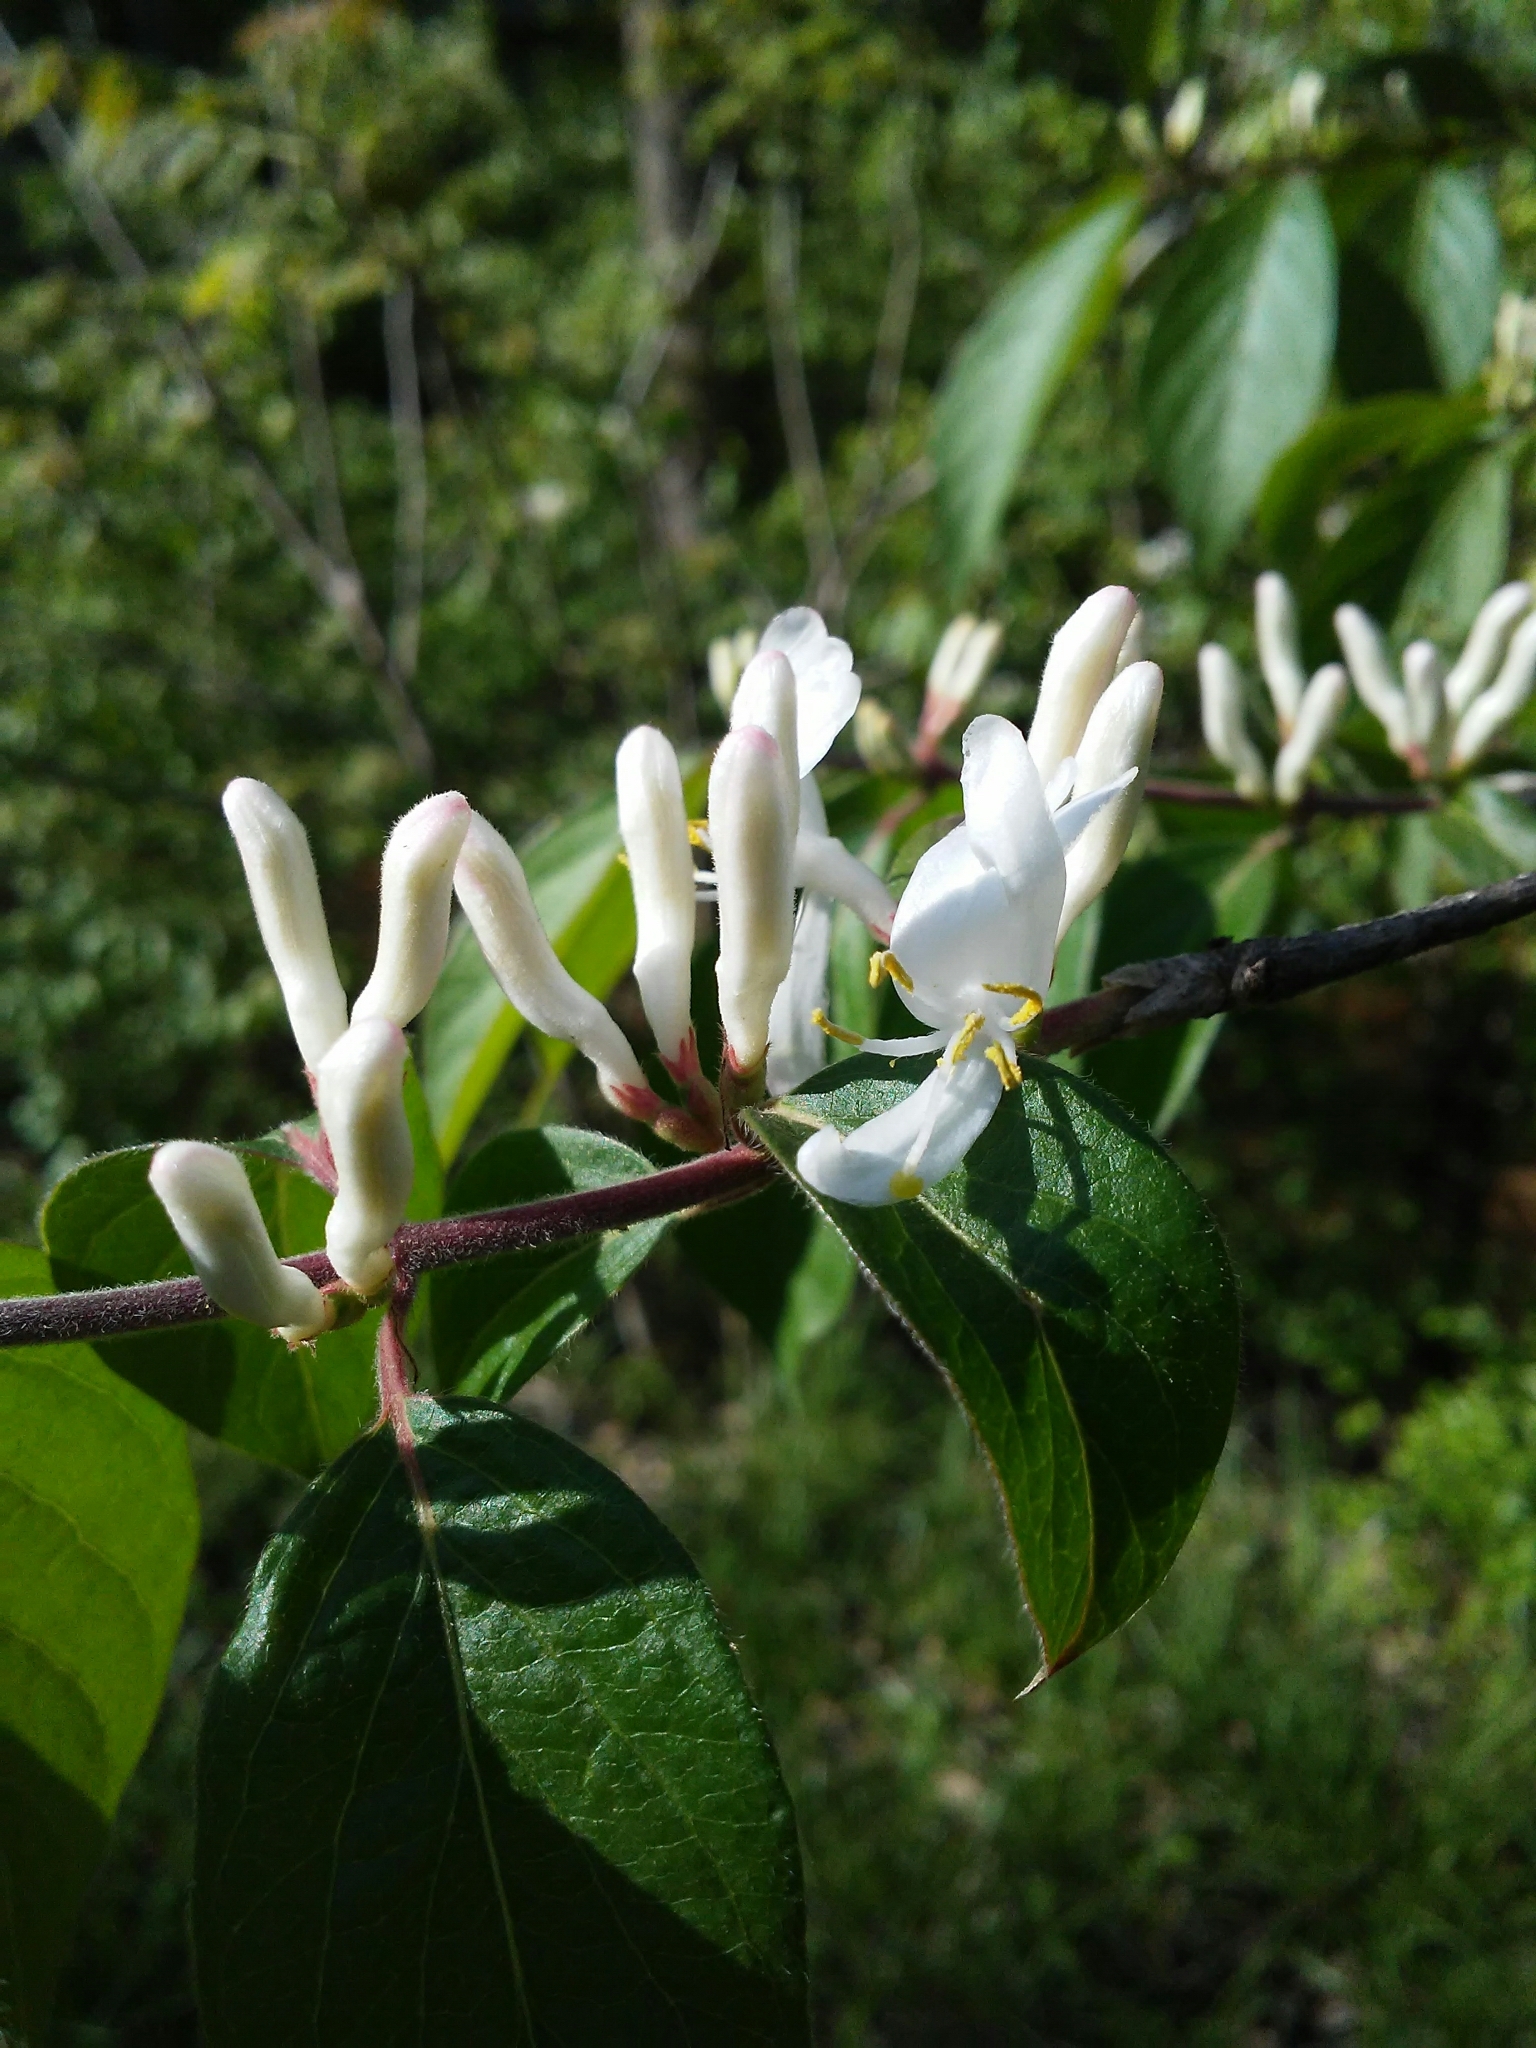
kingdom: Plantae
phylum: Tracheophyta
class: Magnoliopsida
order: Dipsacales
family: Caprifoliaceae
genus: Lonicera
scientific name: Lonicera maackii
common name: Amur honeysuckle
